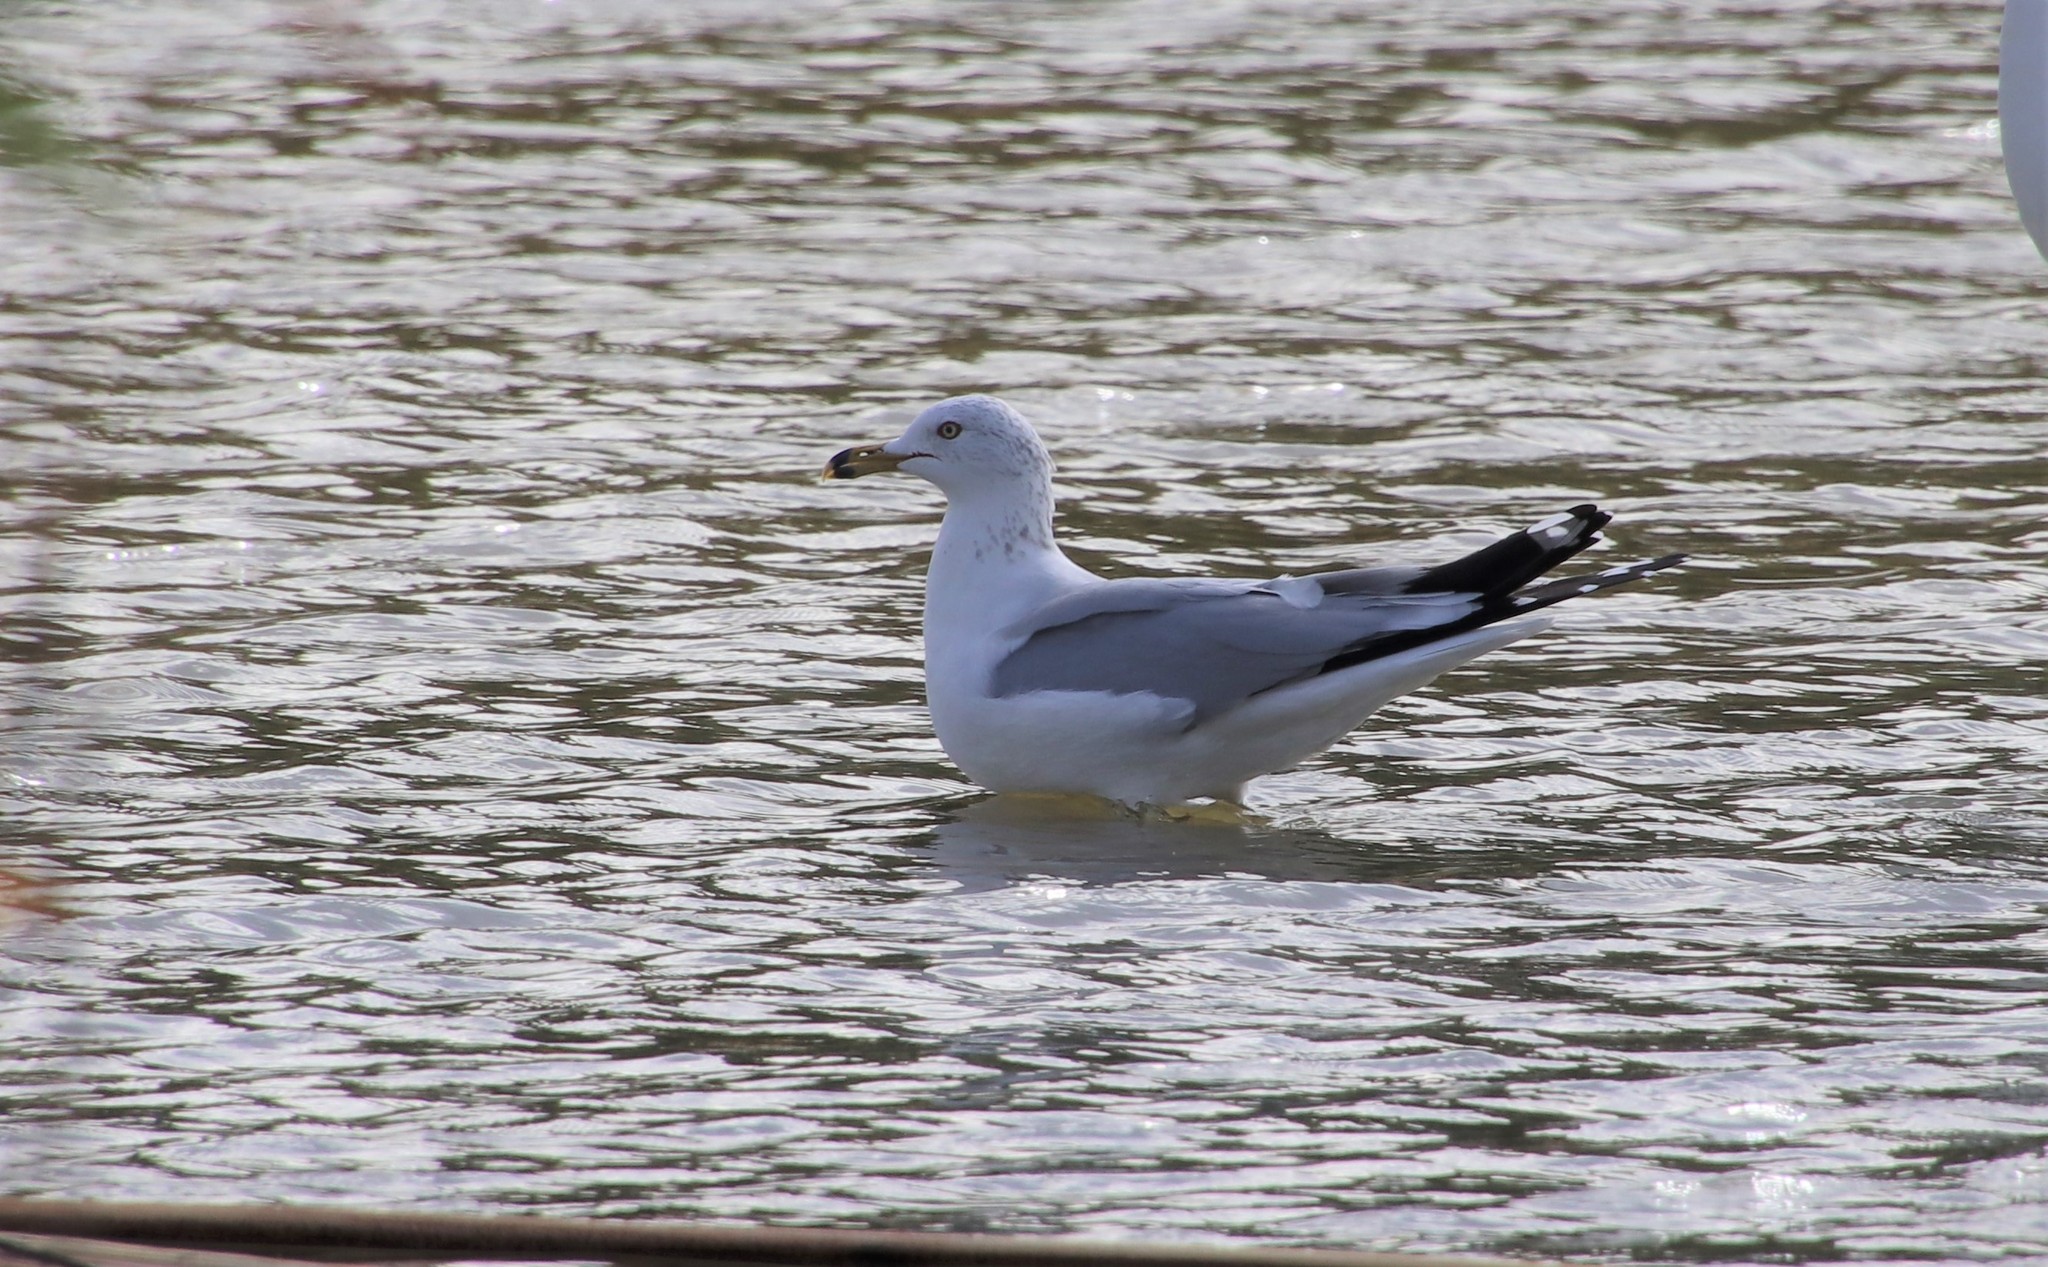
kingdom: Animalia
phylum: Chordata
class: Aves
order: Charadriiformes
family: Laridae
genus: Larus
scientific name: Larus delawarensis
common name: Ring-billed gull
